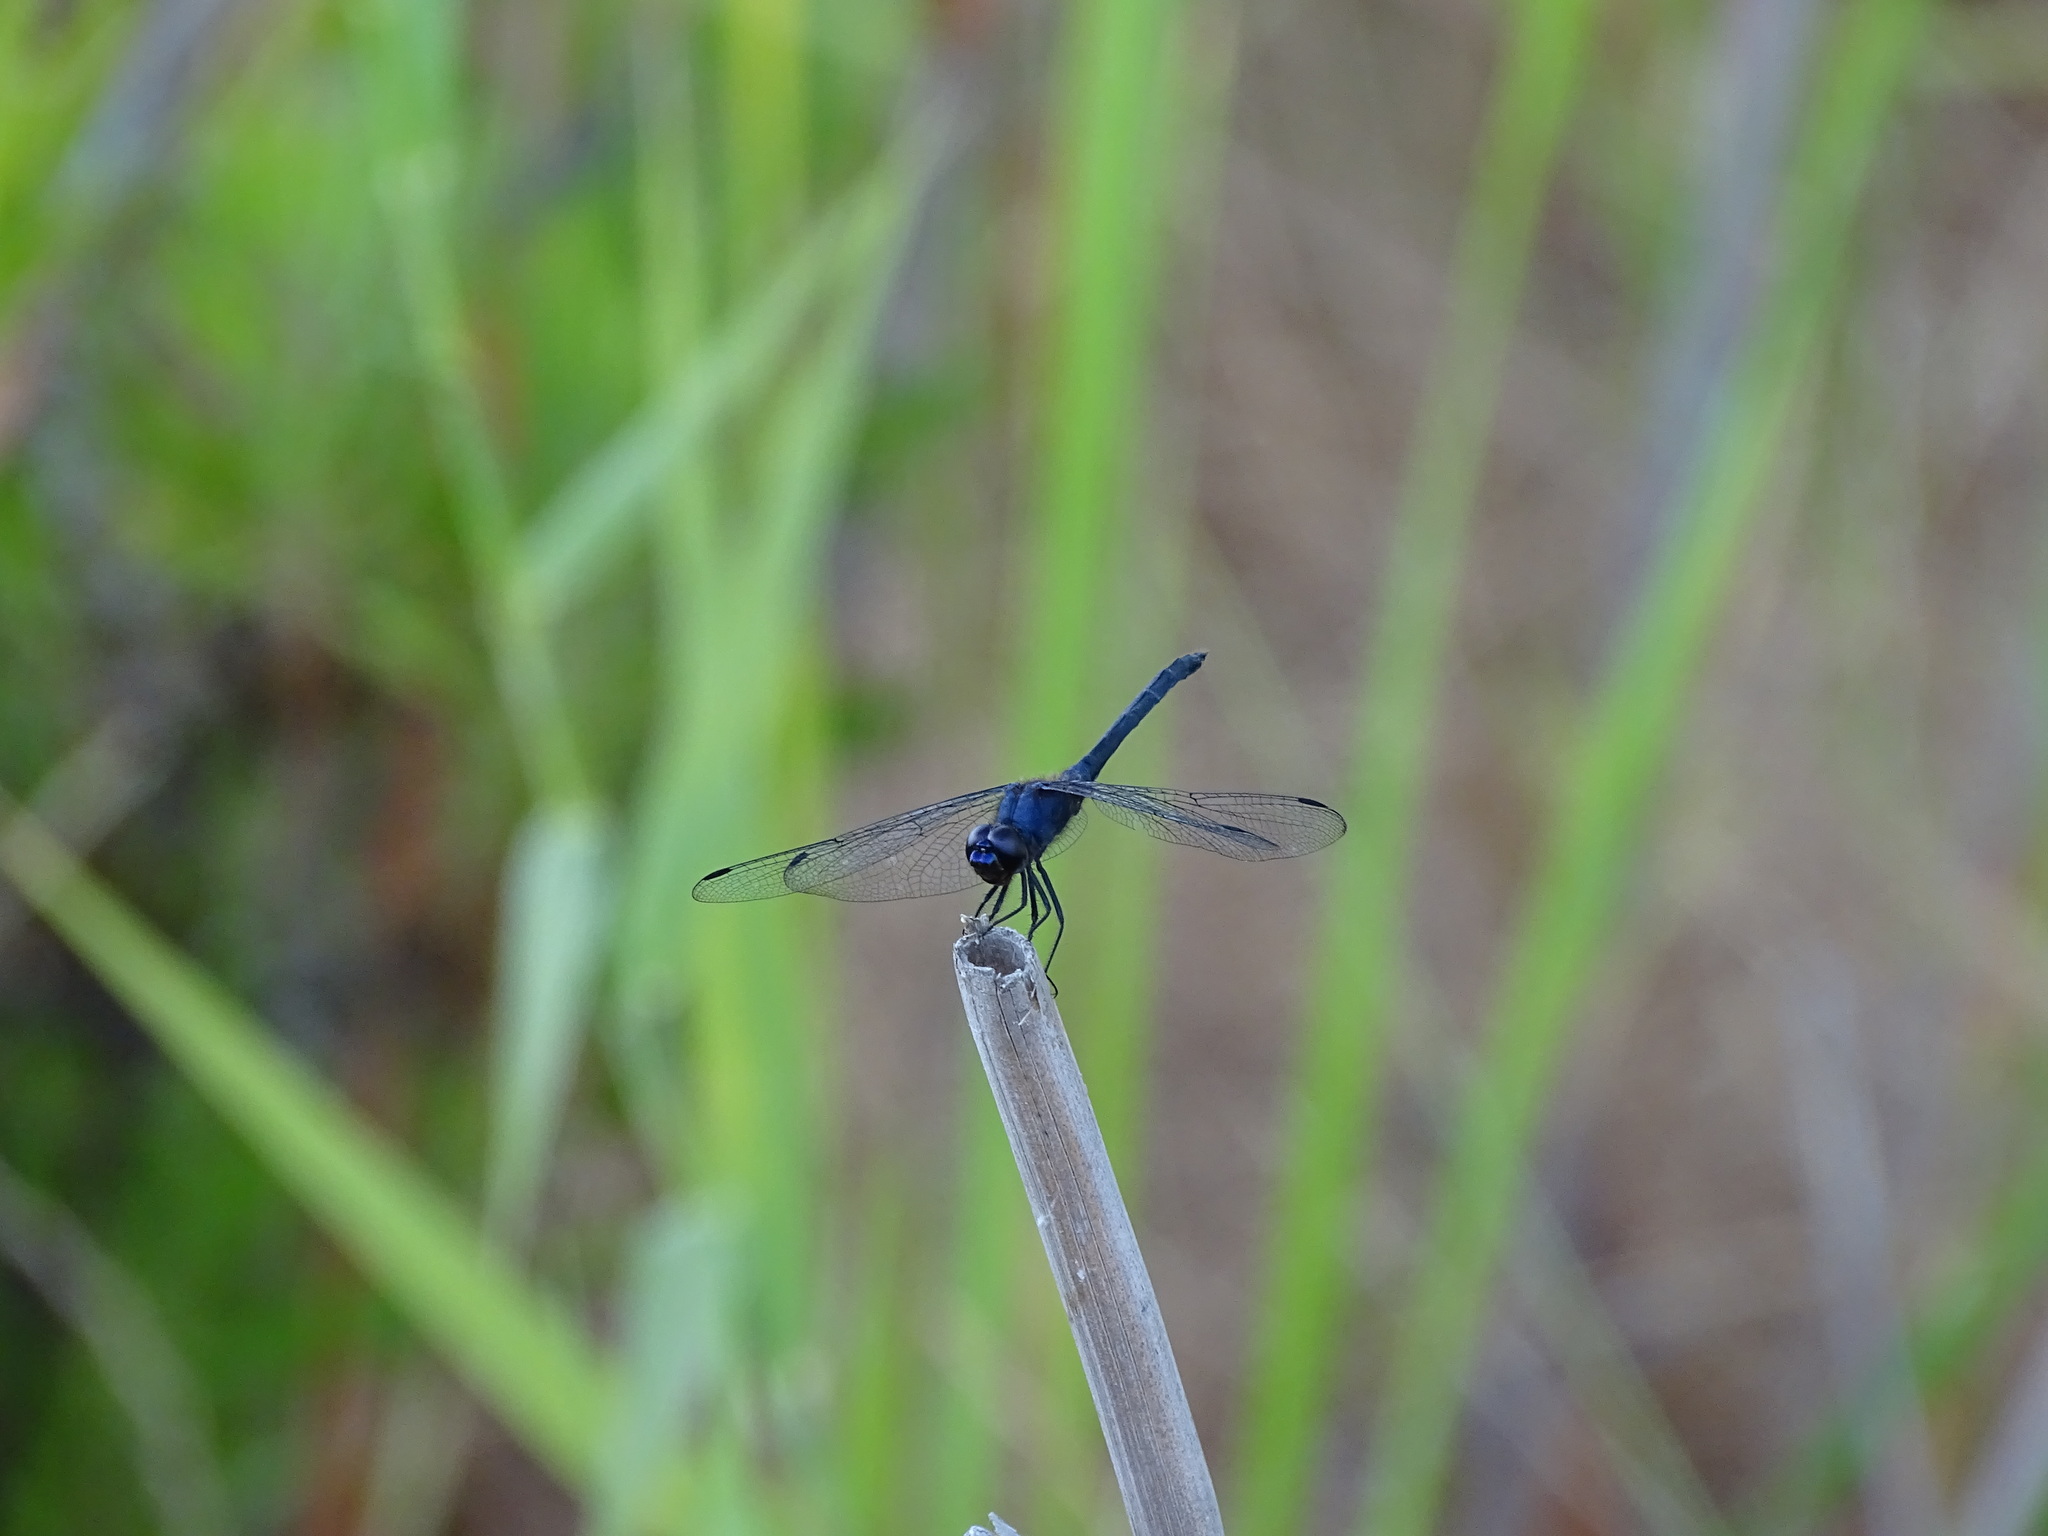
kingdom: Animalia
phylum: Arthropoda
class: Insecta
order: Odonata
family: Libellulidae
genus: Trithemis
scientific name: Trithemis festiva
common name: Indigo dropwing
